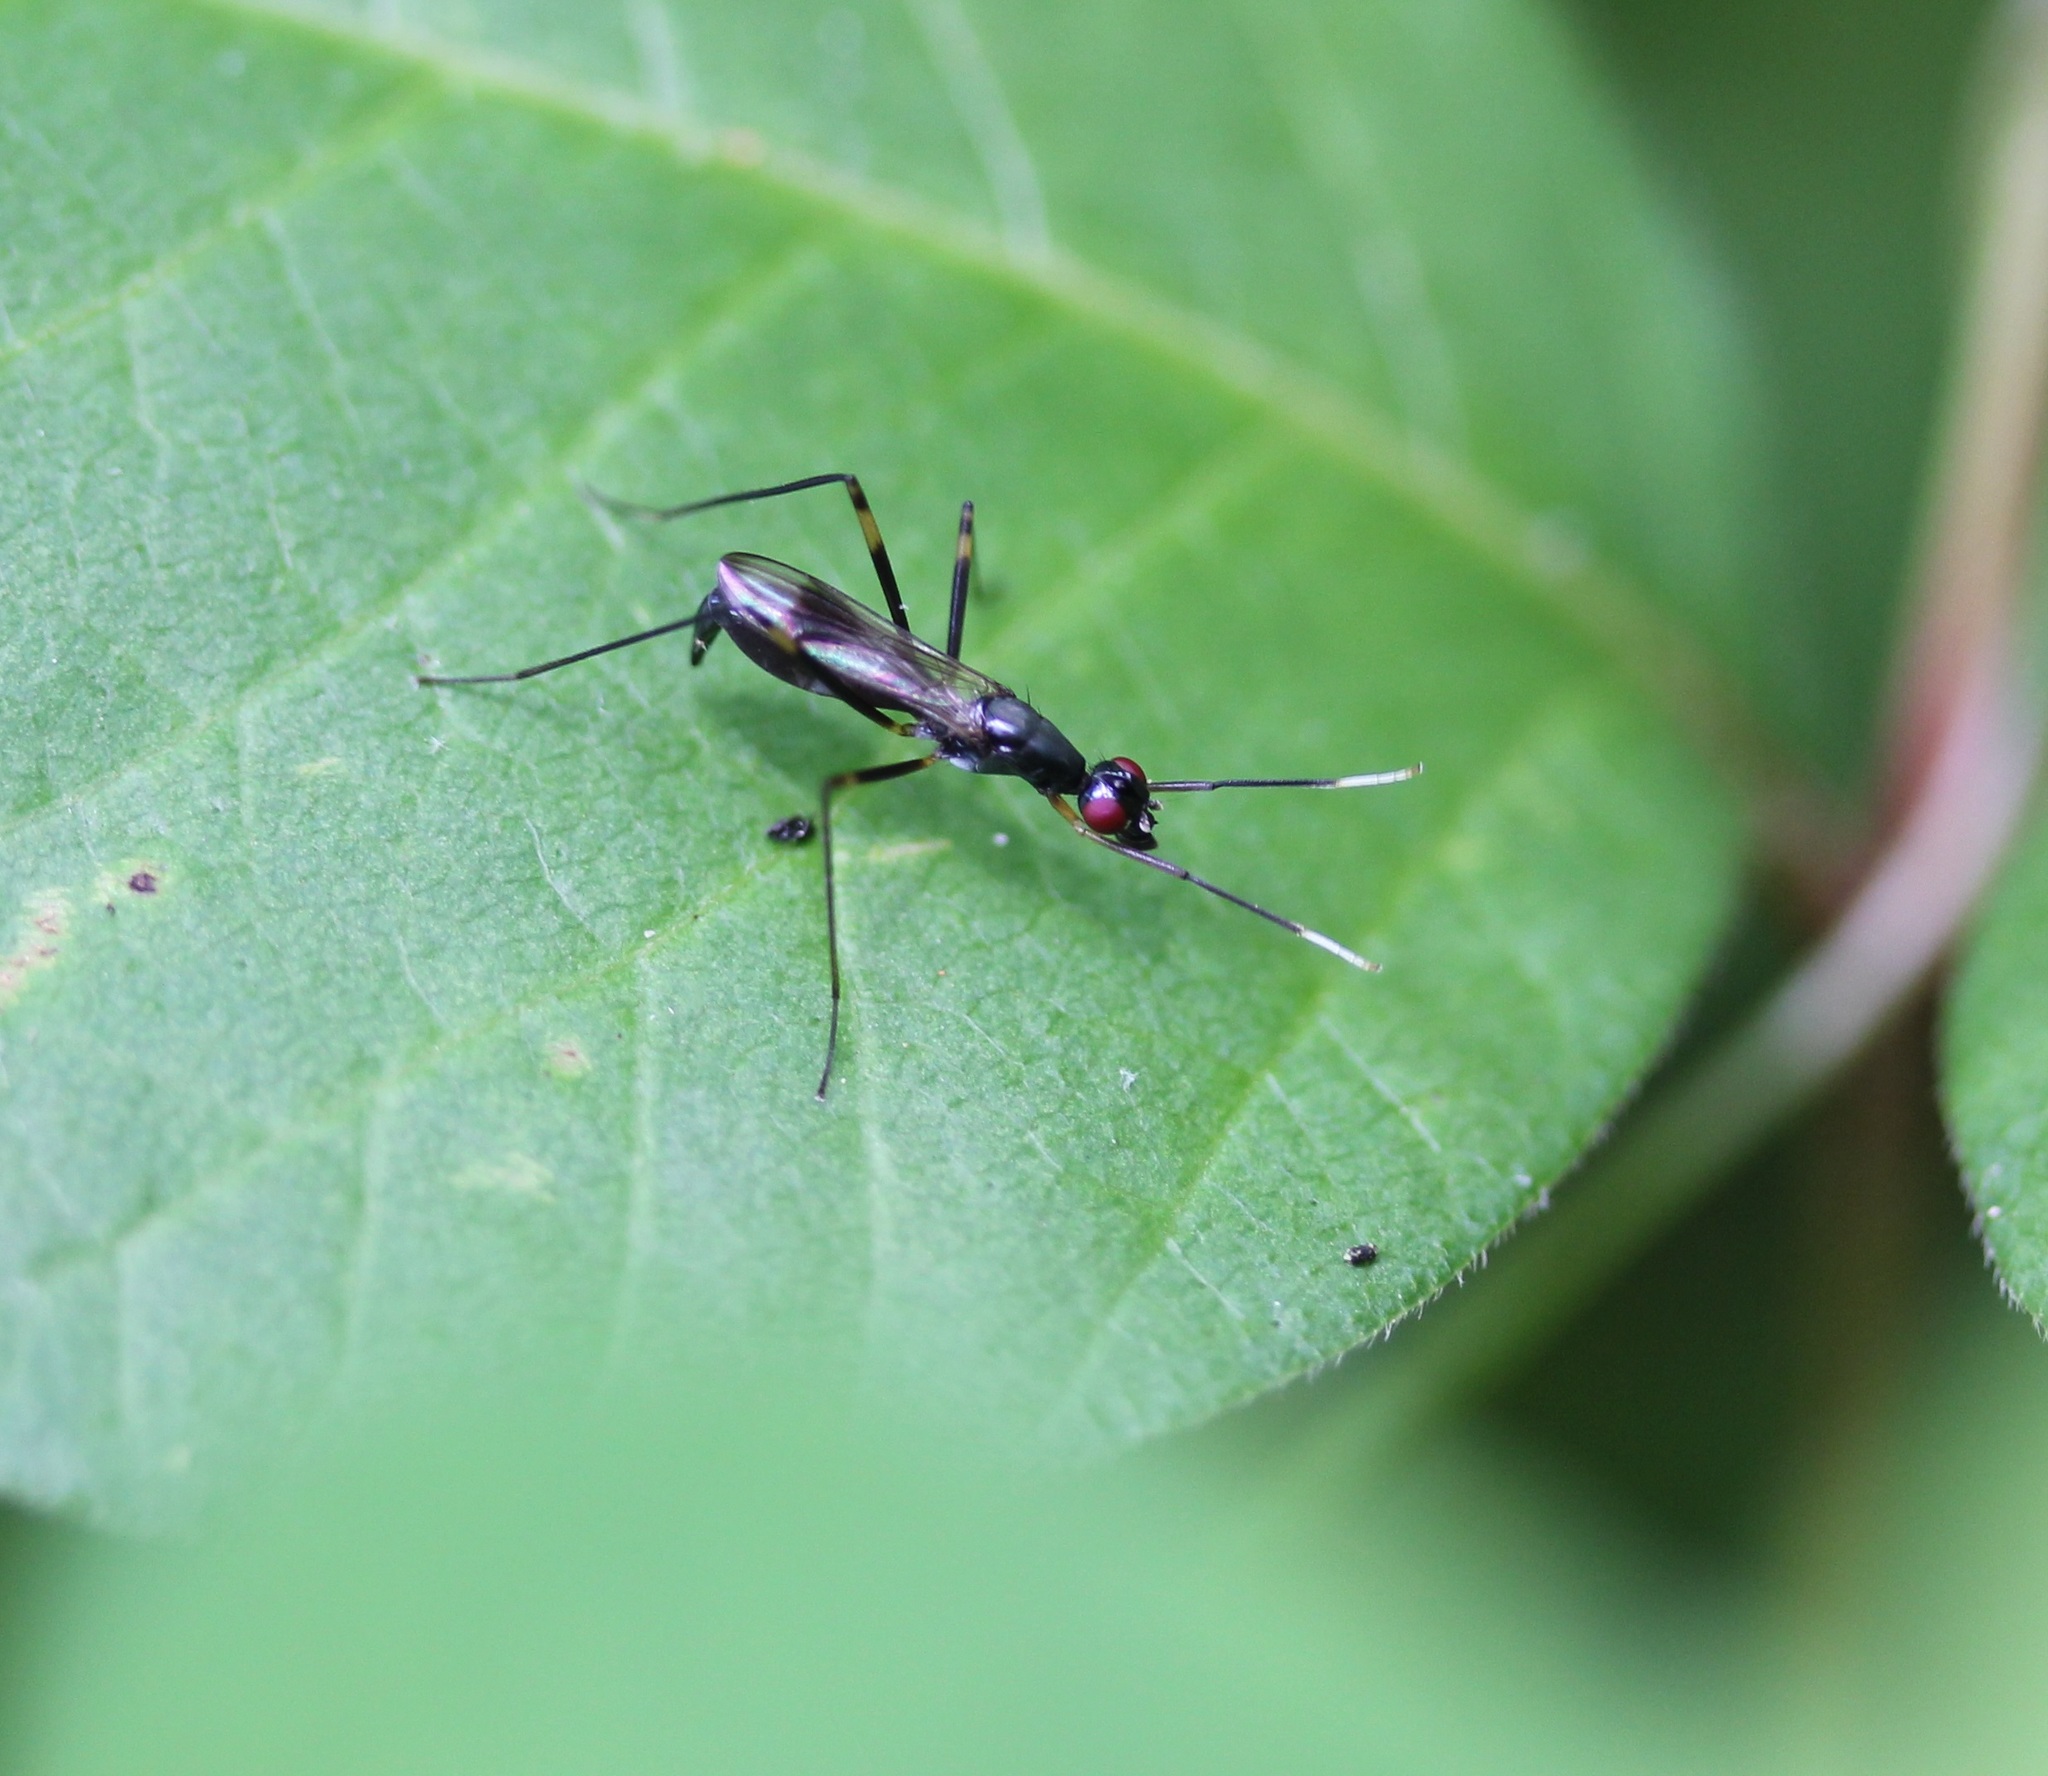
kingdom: Animalia
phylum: Arthropoda
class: Insecta
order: Diptera
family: Micropezidae
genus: Rainieria
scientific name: Rainieria antennaepes
